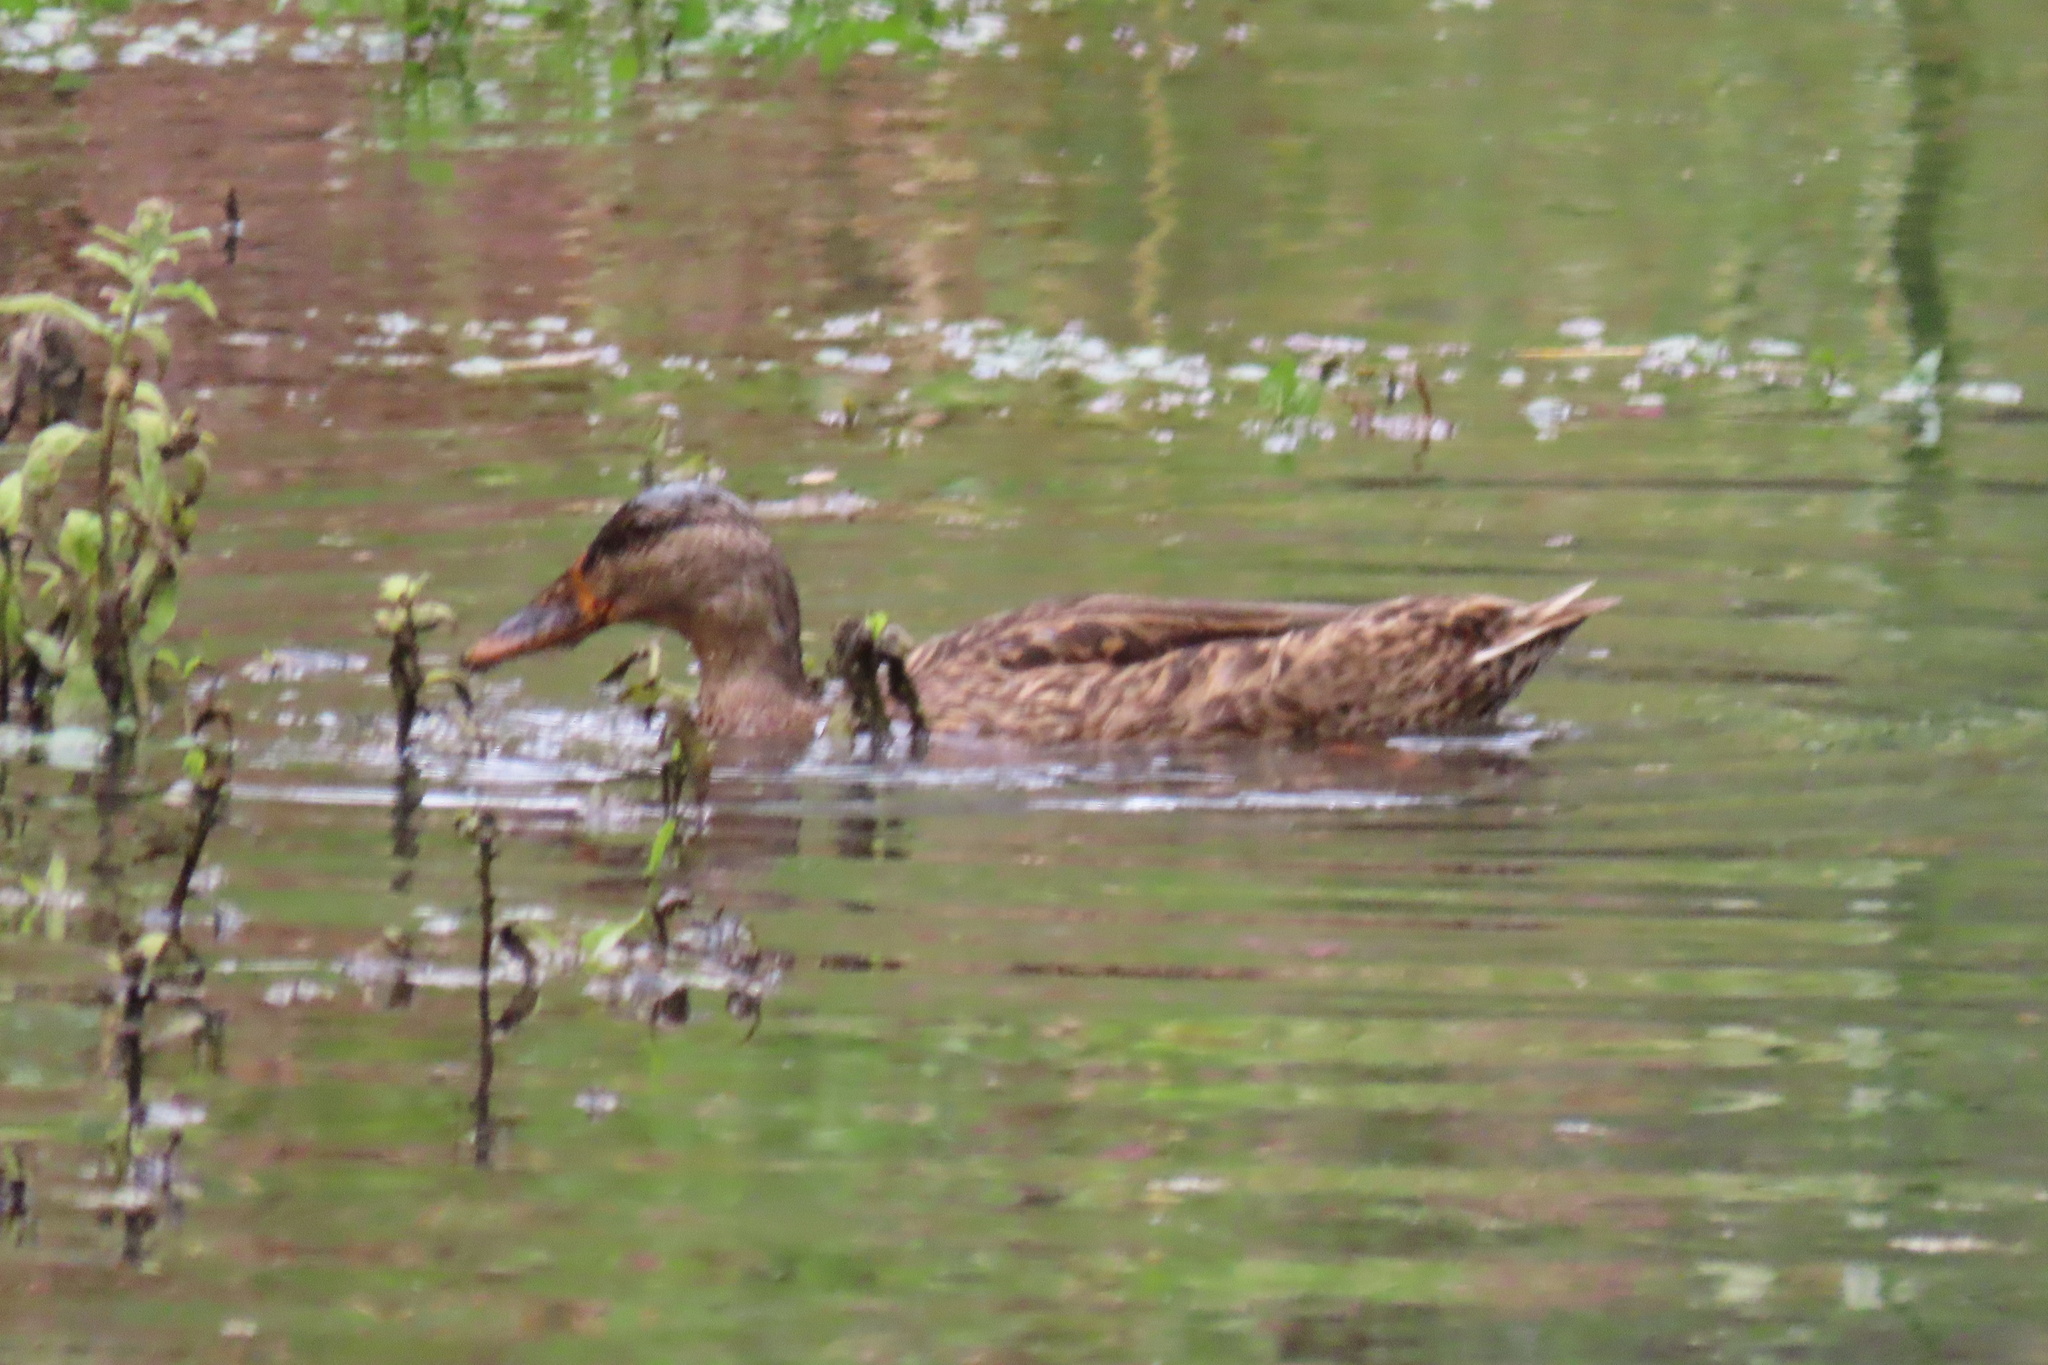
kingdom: Animalia
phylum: Chordata
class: Aves
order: Anseriformes
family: Anatidae
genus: Anas
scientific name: Anas platyrhynchos
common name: Mallard
